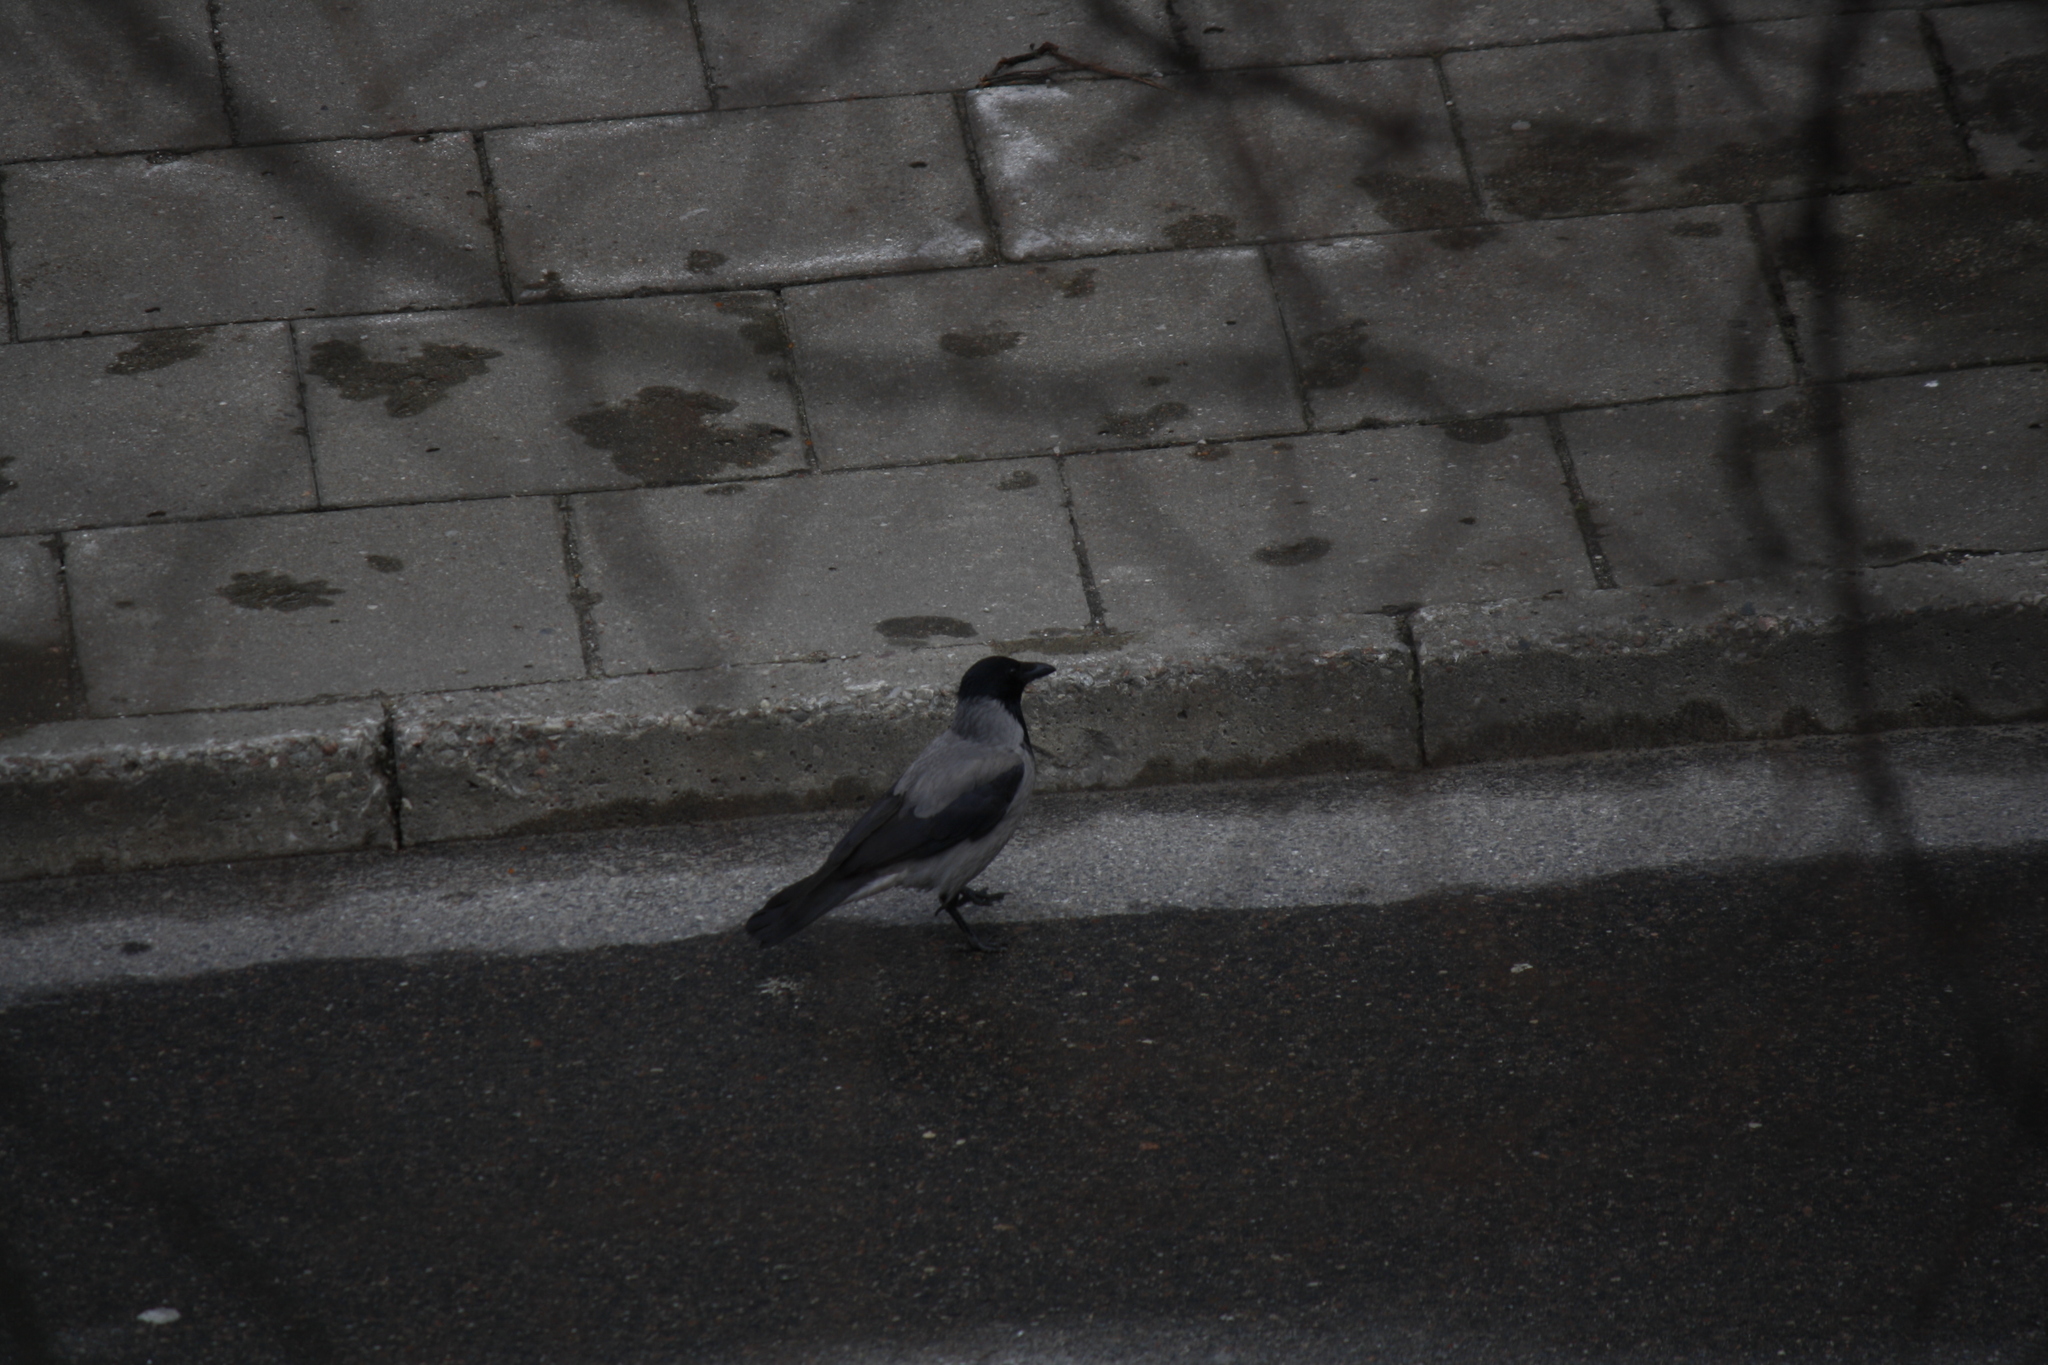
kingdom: Animalia
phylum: Chordata
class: Aves
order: Passeriformes
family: Corvidae
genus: Corvus
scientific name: Corvus cornix
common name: Hooded crow
